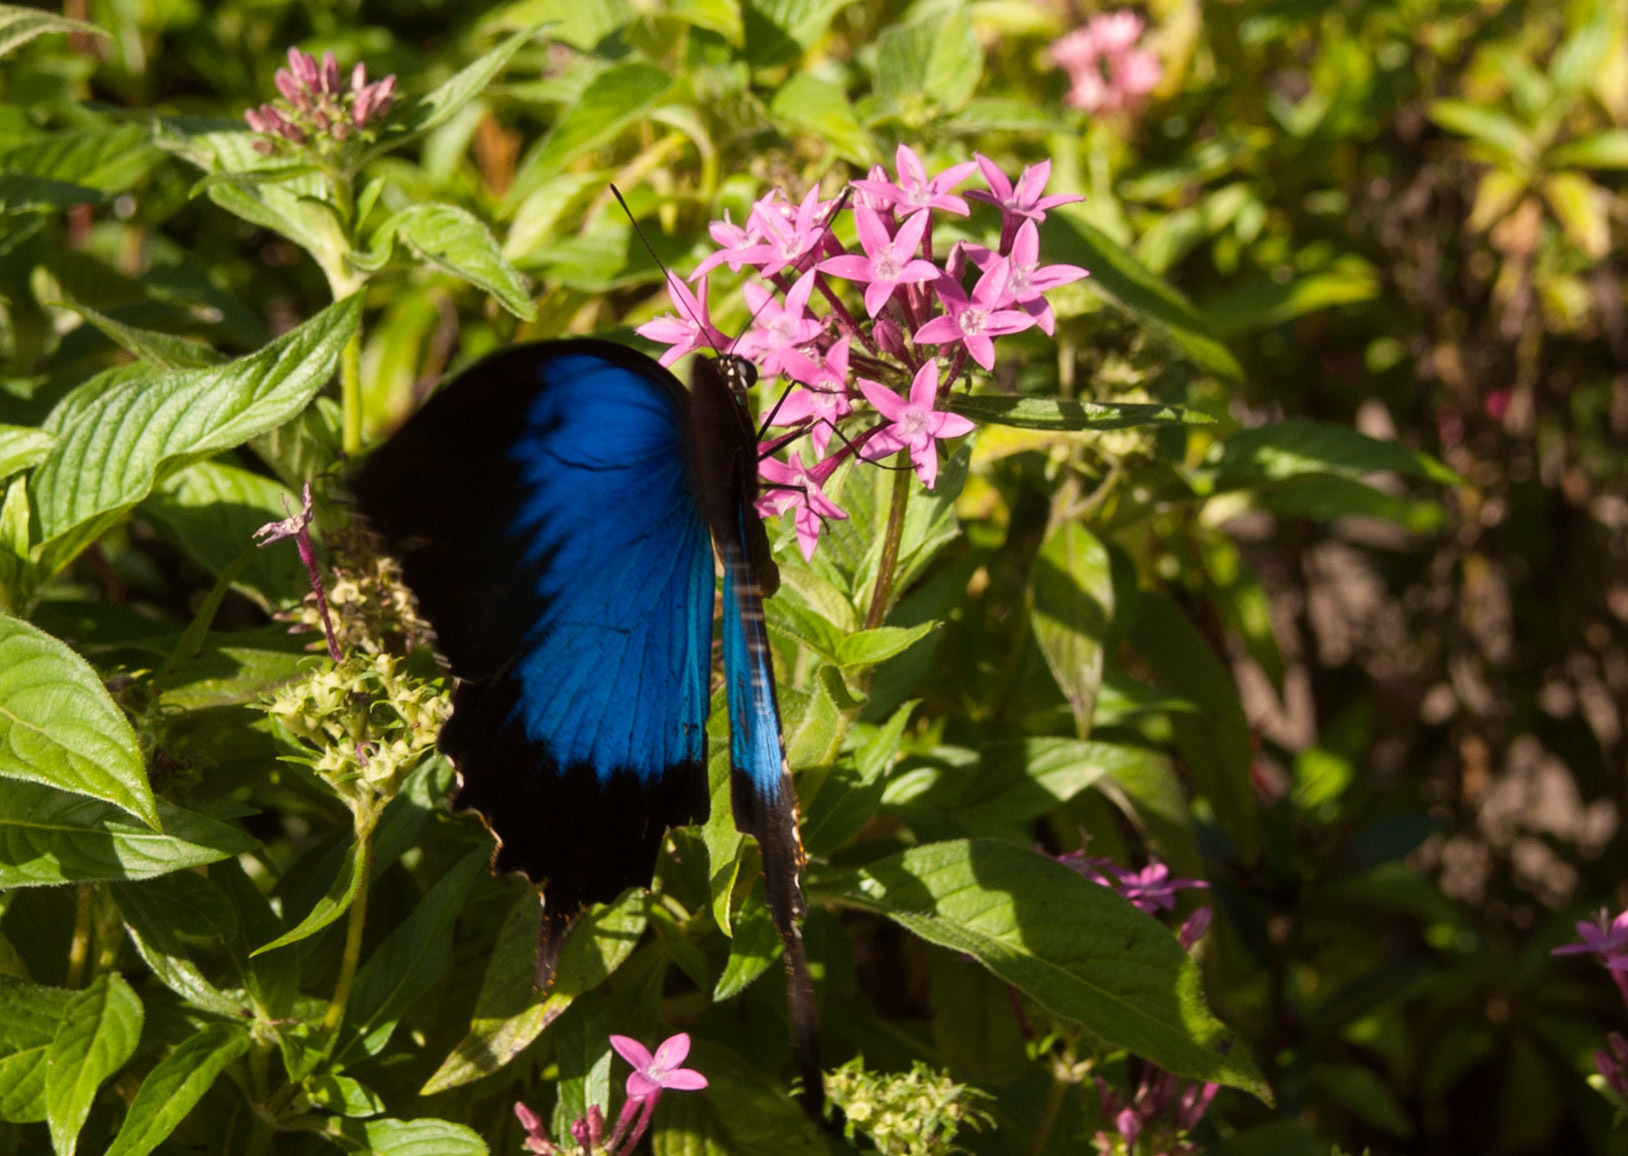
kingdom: Animalia
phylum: Arthropoda
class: Insecta
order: Lepidoptera
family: Papilionidae
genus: Papilio
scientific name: Papilio ulysses
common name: Blue emperor
